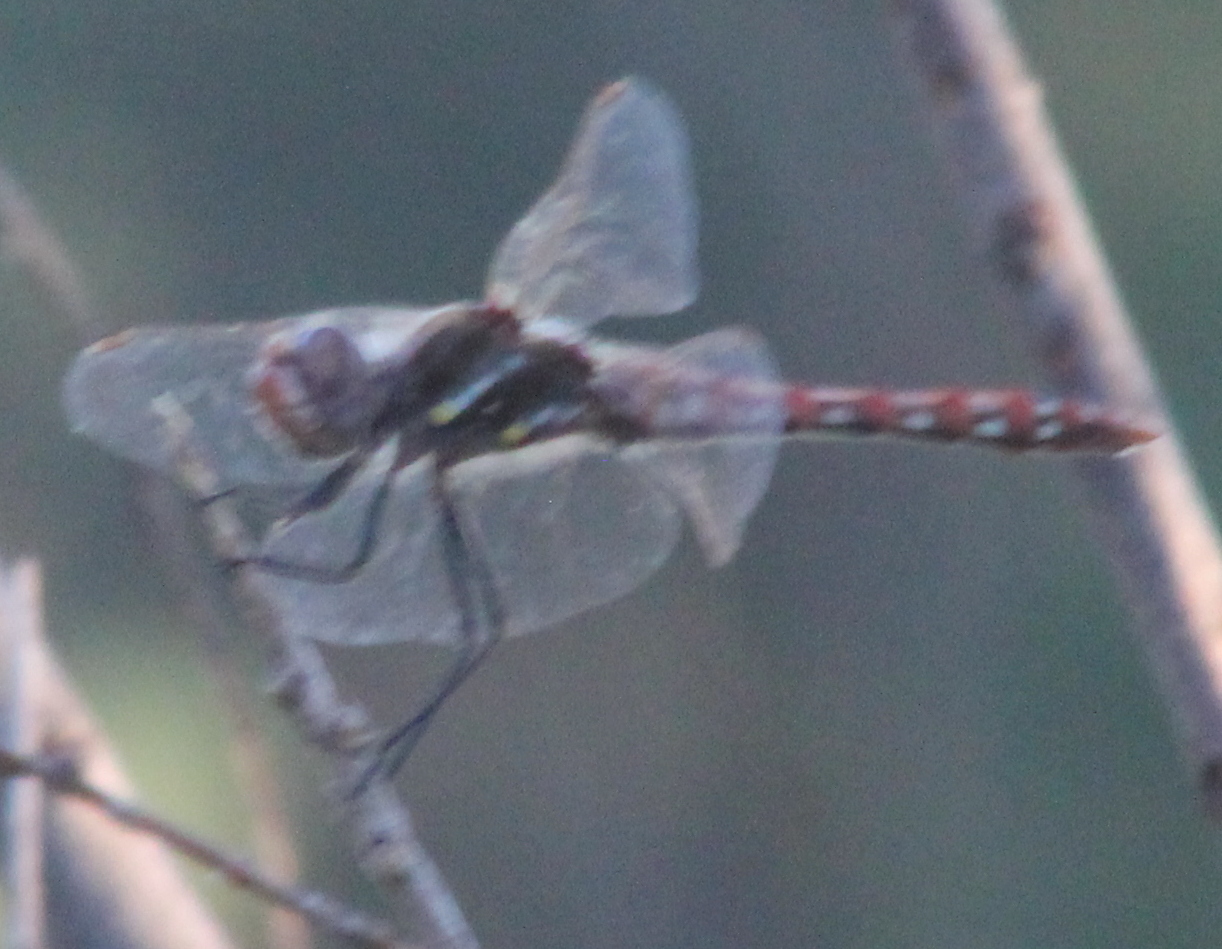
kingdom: Animalia
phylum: Arthropoda
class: Insecta
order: Odonata
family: Libellulidae
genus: Sympetrum
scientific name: Sympetrum corruptum
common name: Variegated meadowhawk
